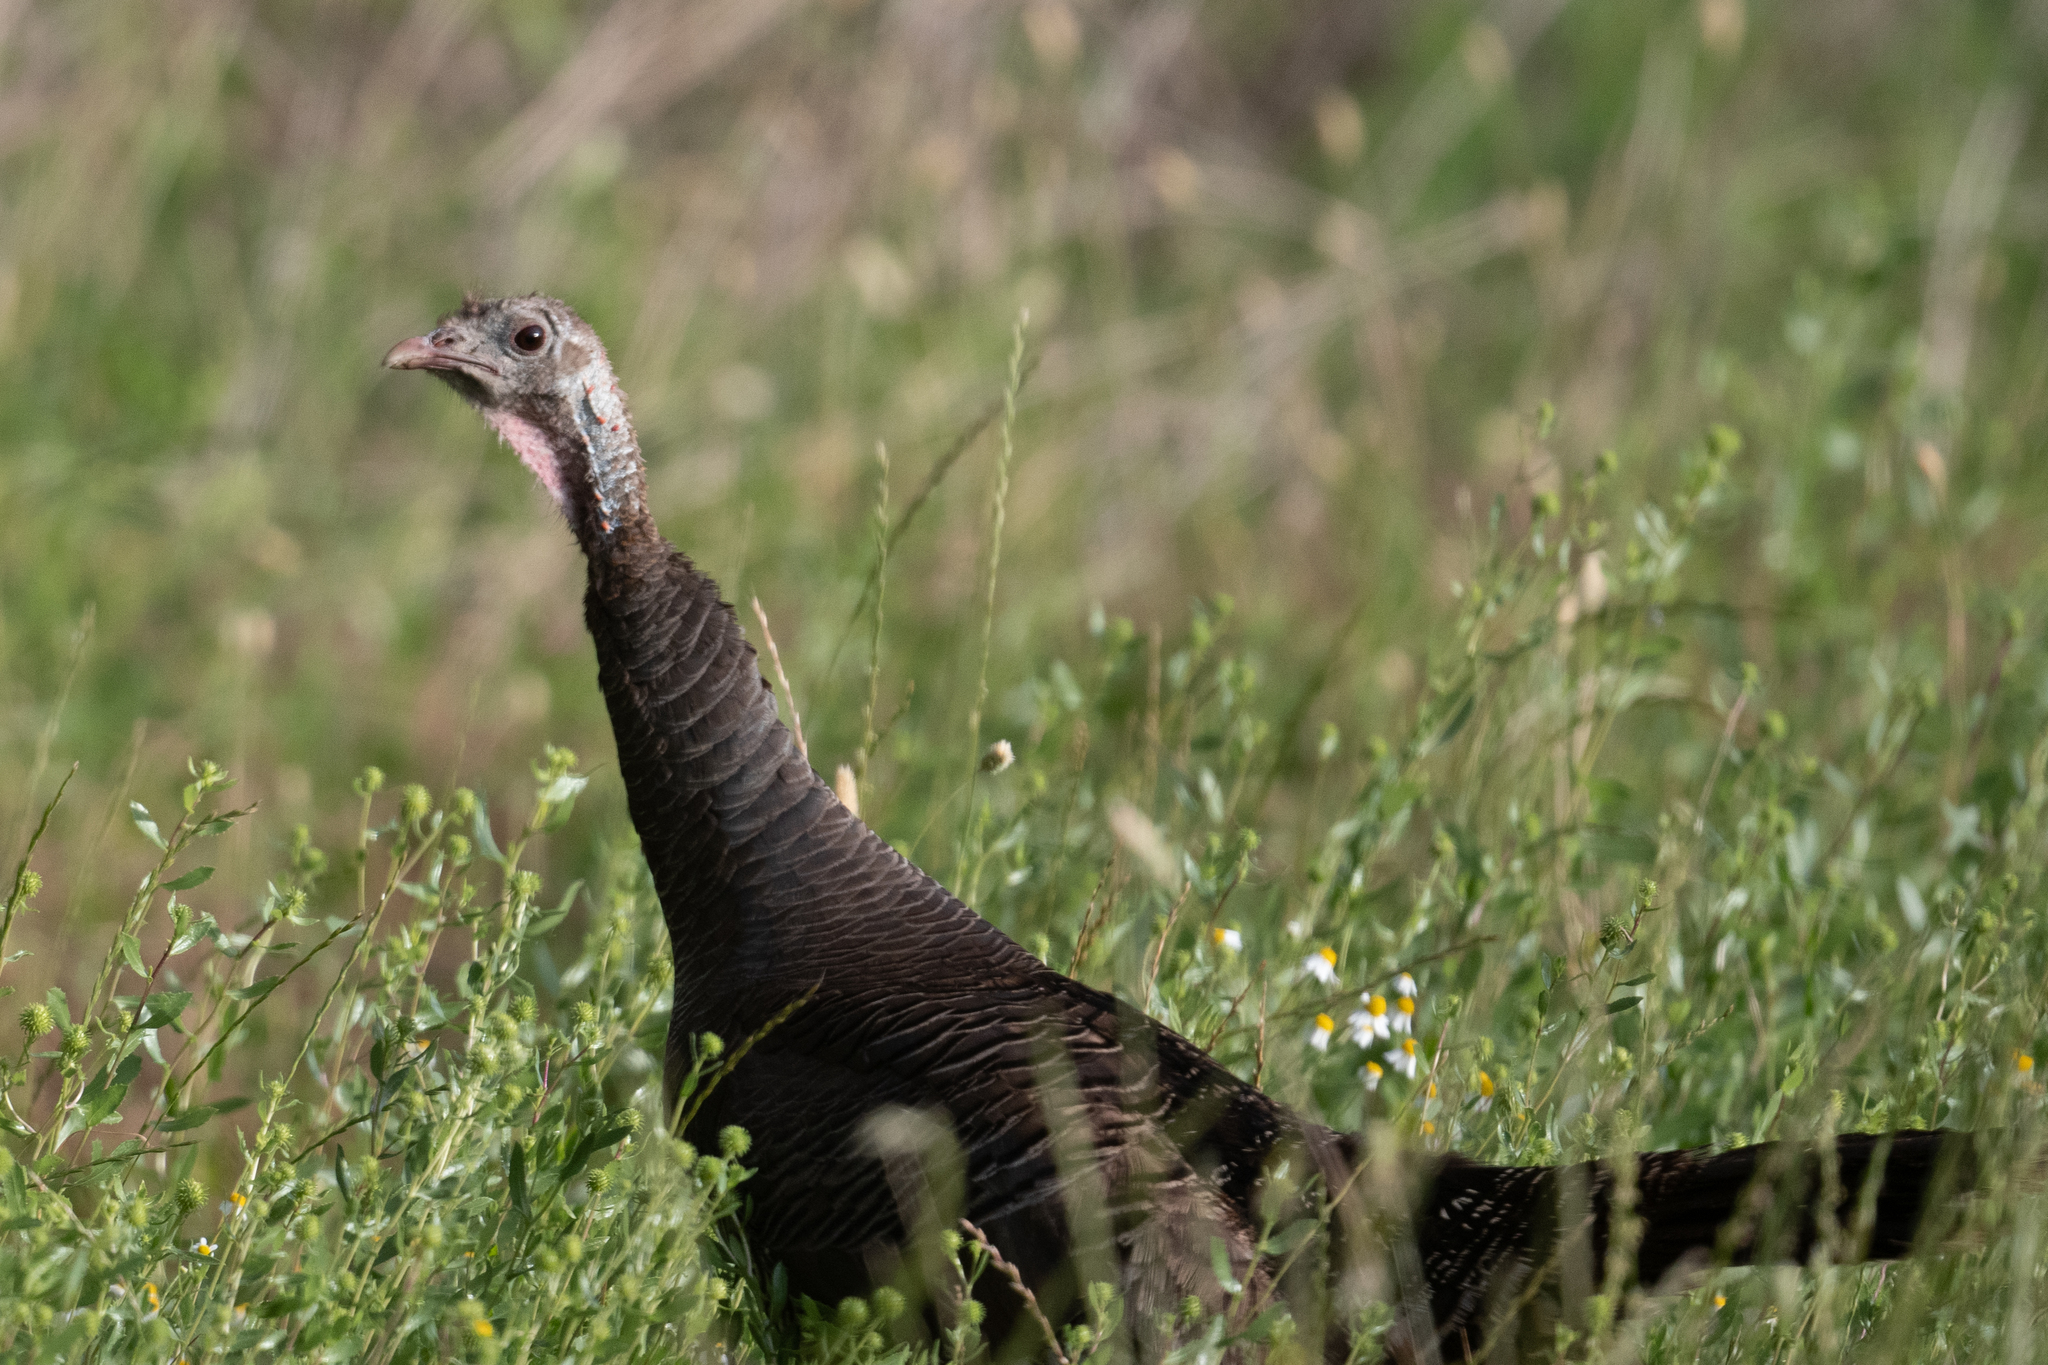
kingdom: Animalia
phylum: Chordata
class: Aves
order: Galliformes
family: Phasianidae
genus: Meleagris
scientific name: Meleagris gallopavo
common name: Wild turkey
